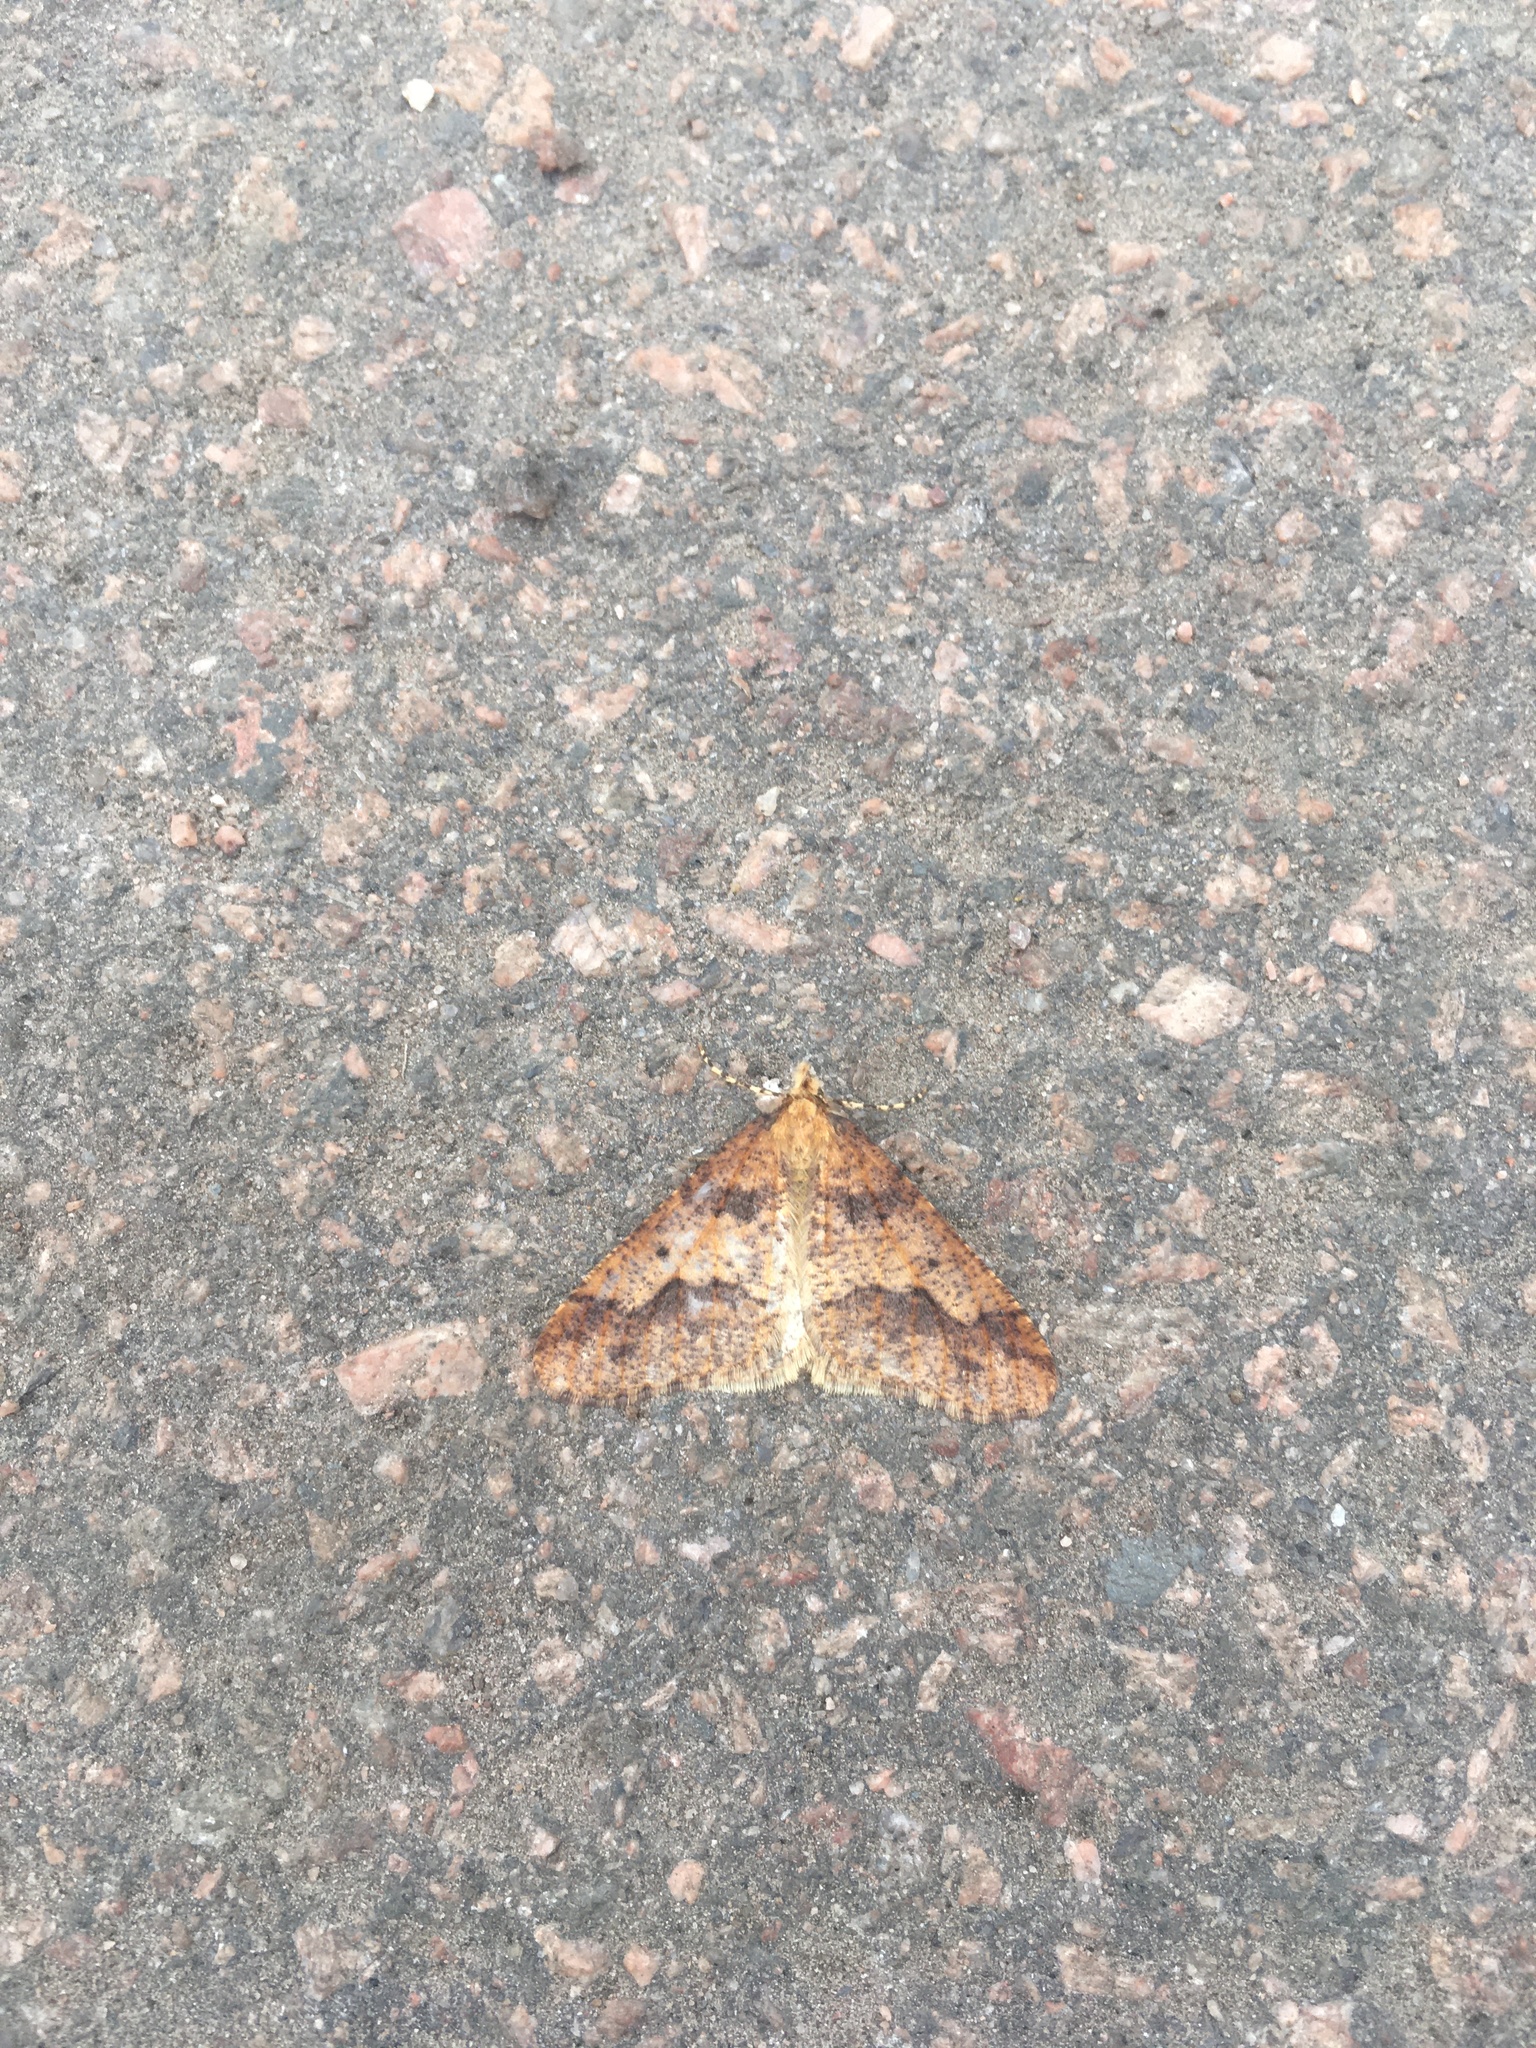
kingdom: Animalia
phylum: Arthropoda
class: Insecta
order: Lepidoptera
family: Geometridae
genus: Erannis
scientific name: Erannis defoliaria
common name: Mottled umber
